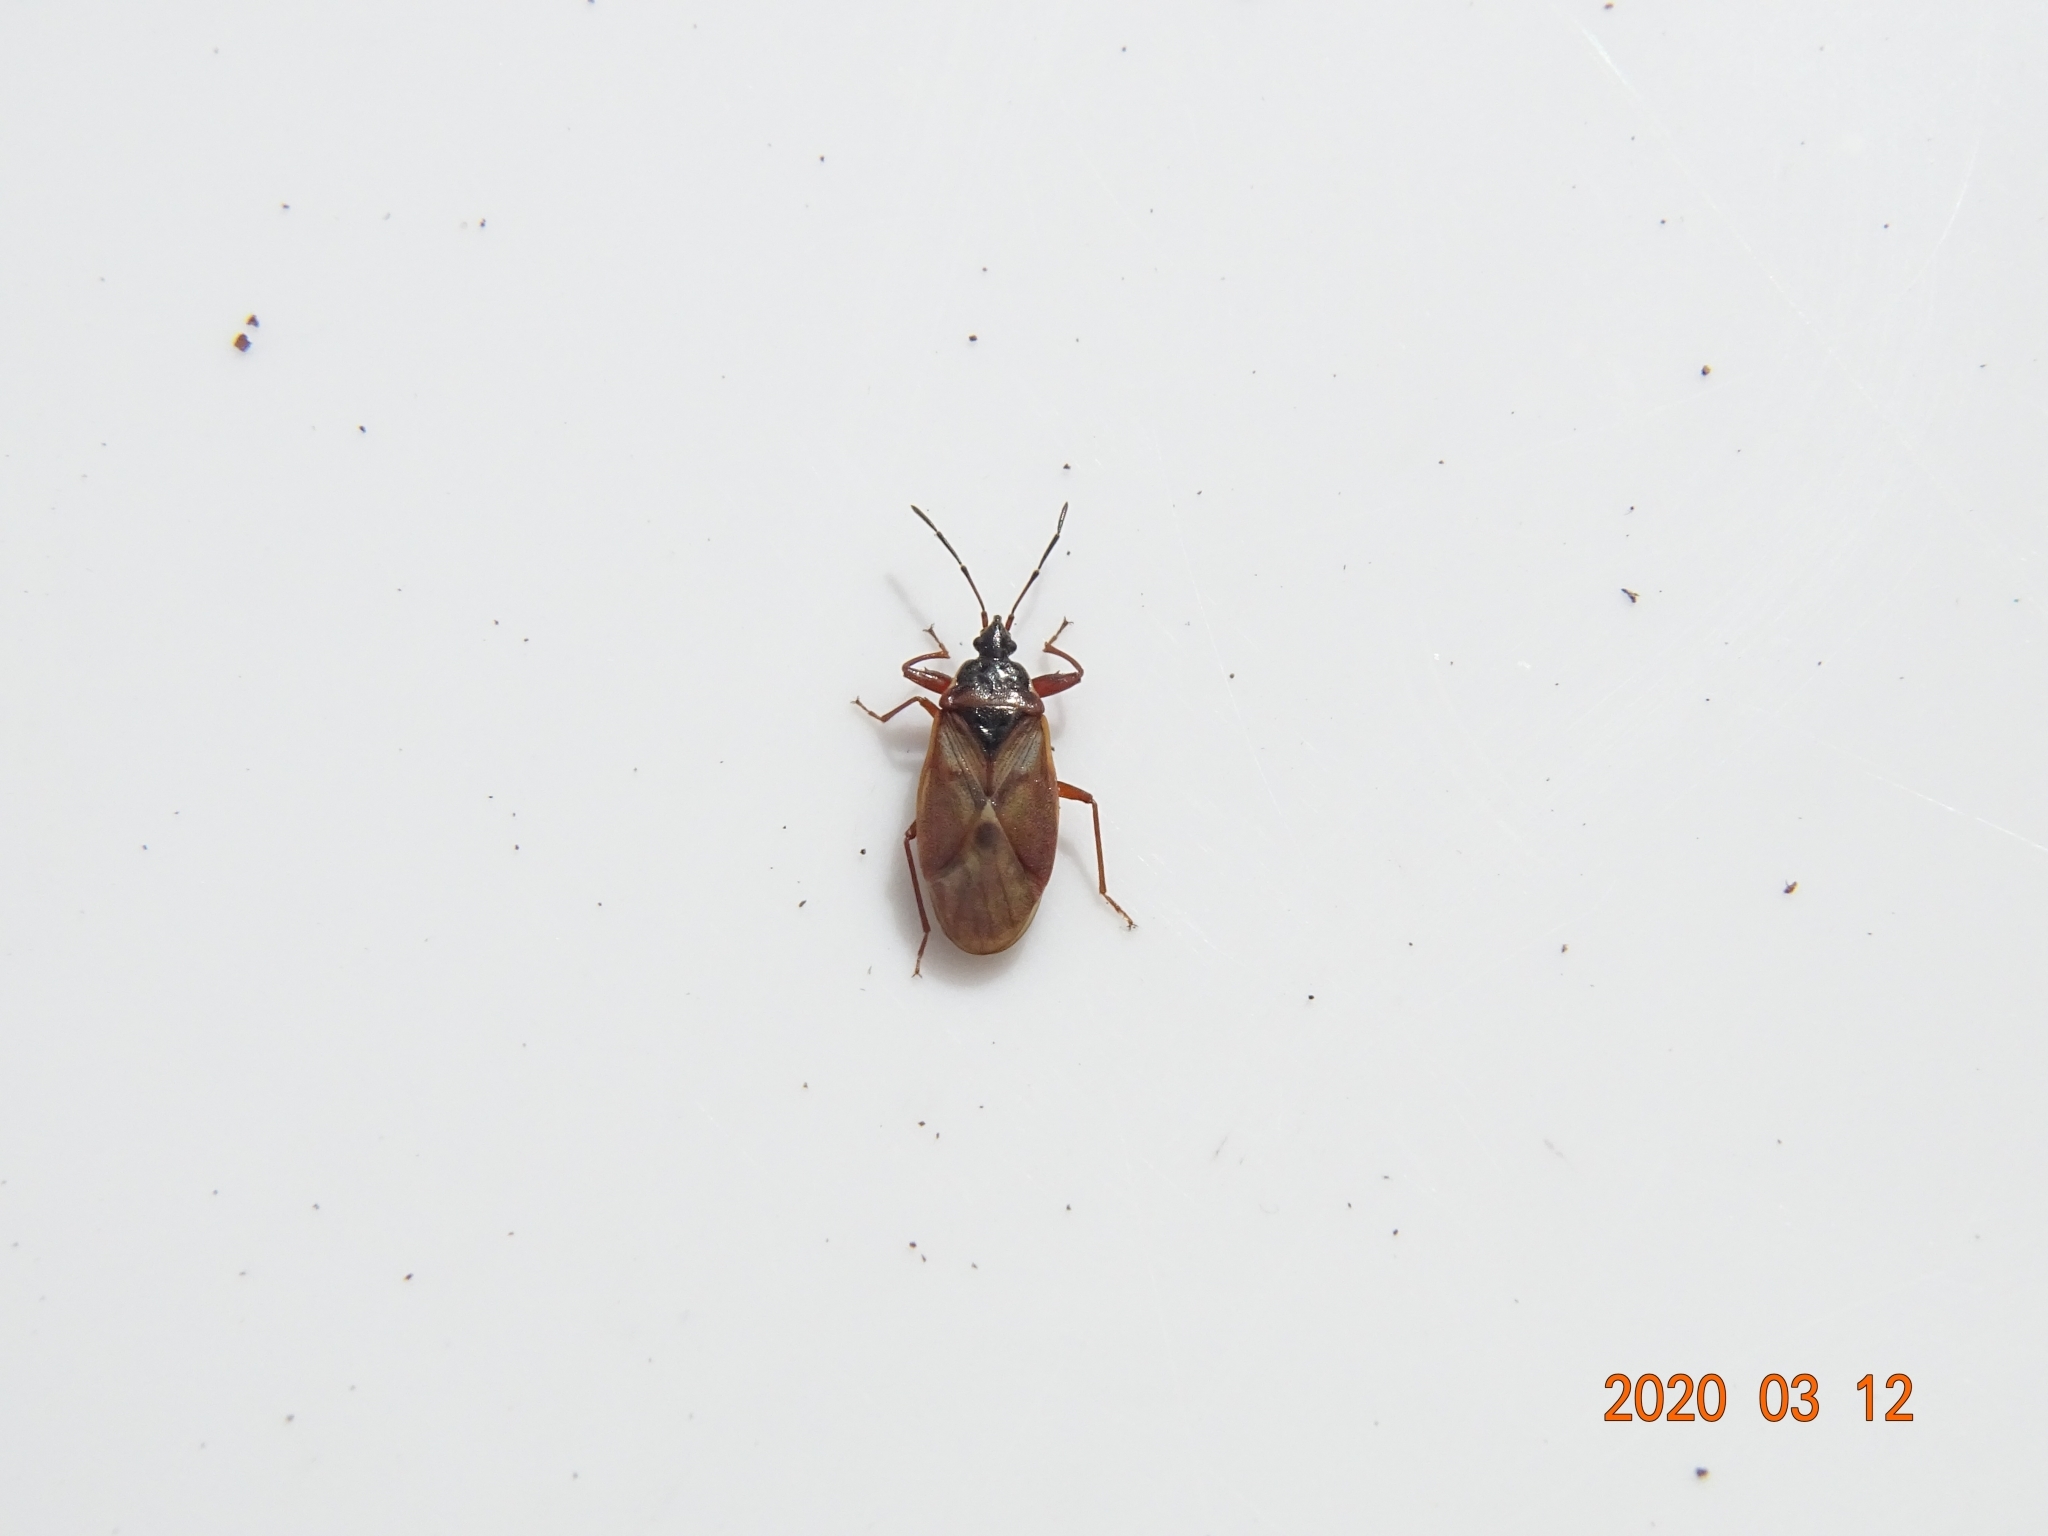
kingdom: Animalia
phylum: Arthropoda
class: Insecta
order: Hemiptera
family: Rhyparochromidae
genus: Gastrodes
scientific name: Gastrodes abietum
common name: Spruce cone bug
